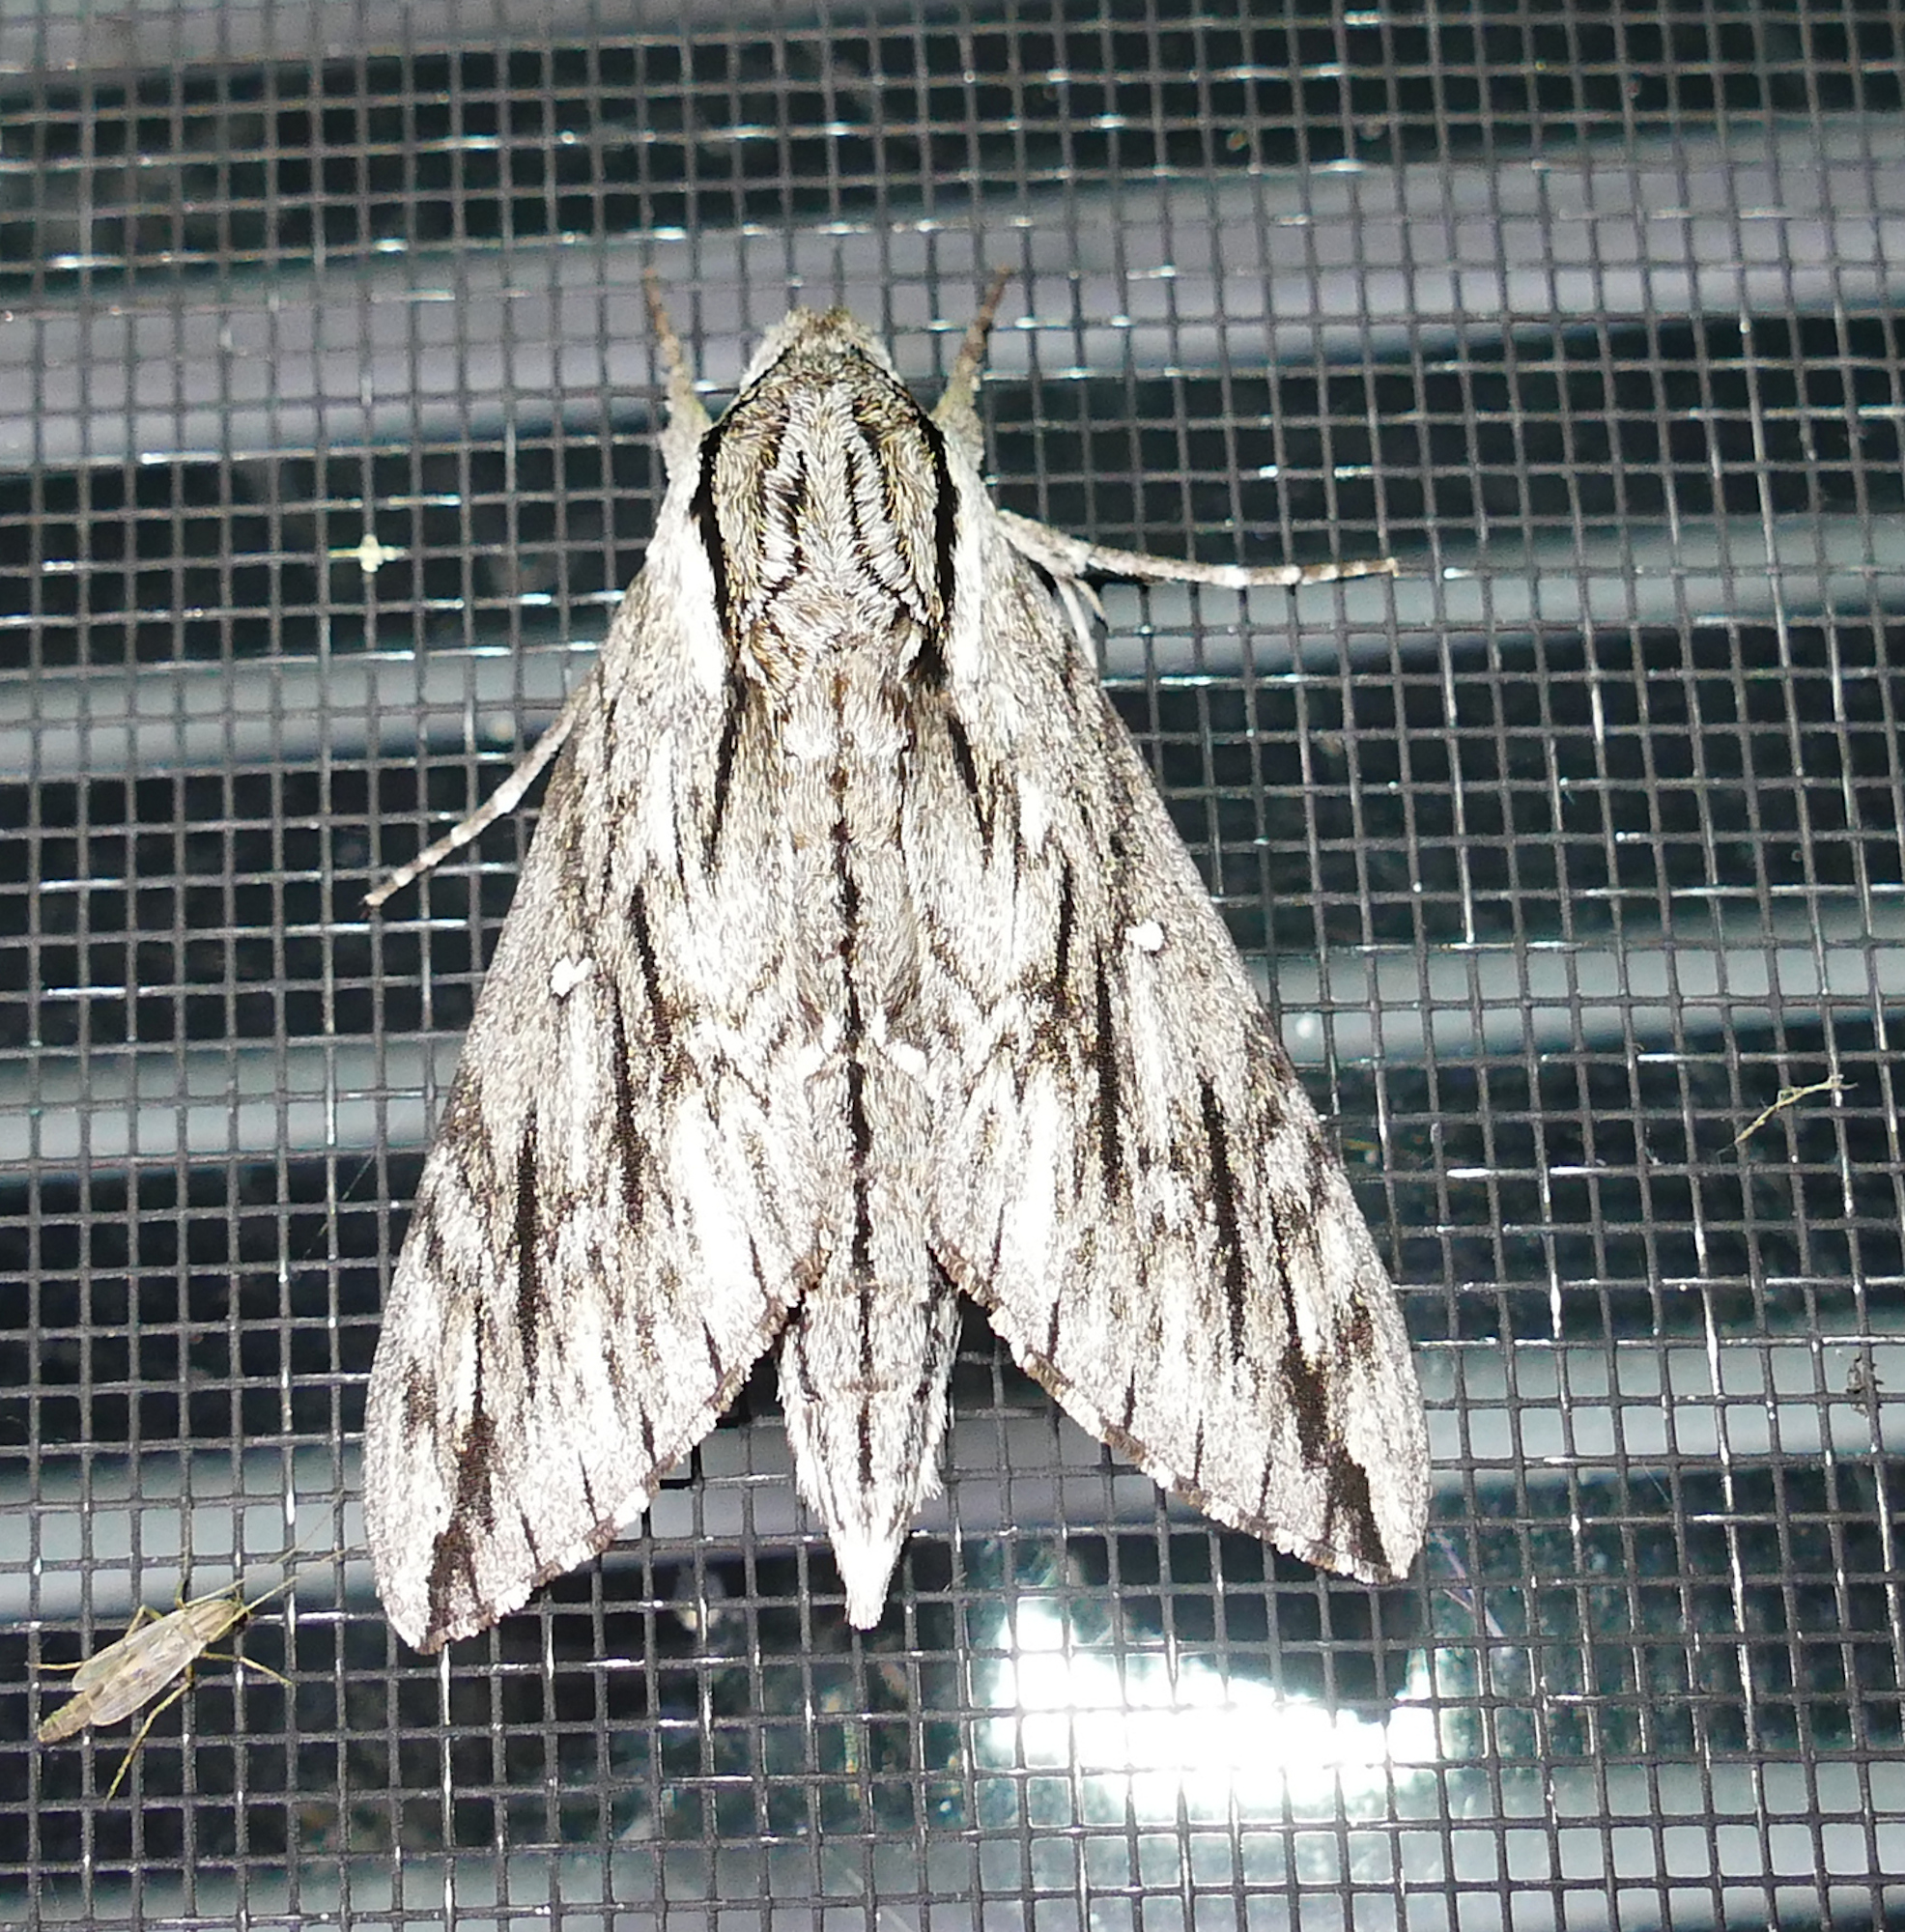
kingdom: Animalia
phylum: Arthropoda
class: Insecta
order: Lepidoptera
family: Sphingidae
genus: Paratrea
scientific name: Paratrea plebeja
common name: Plebian sphinx
